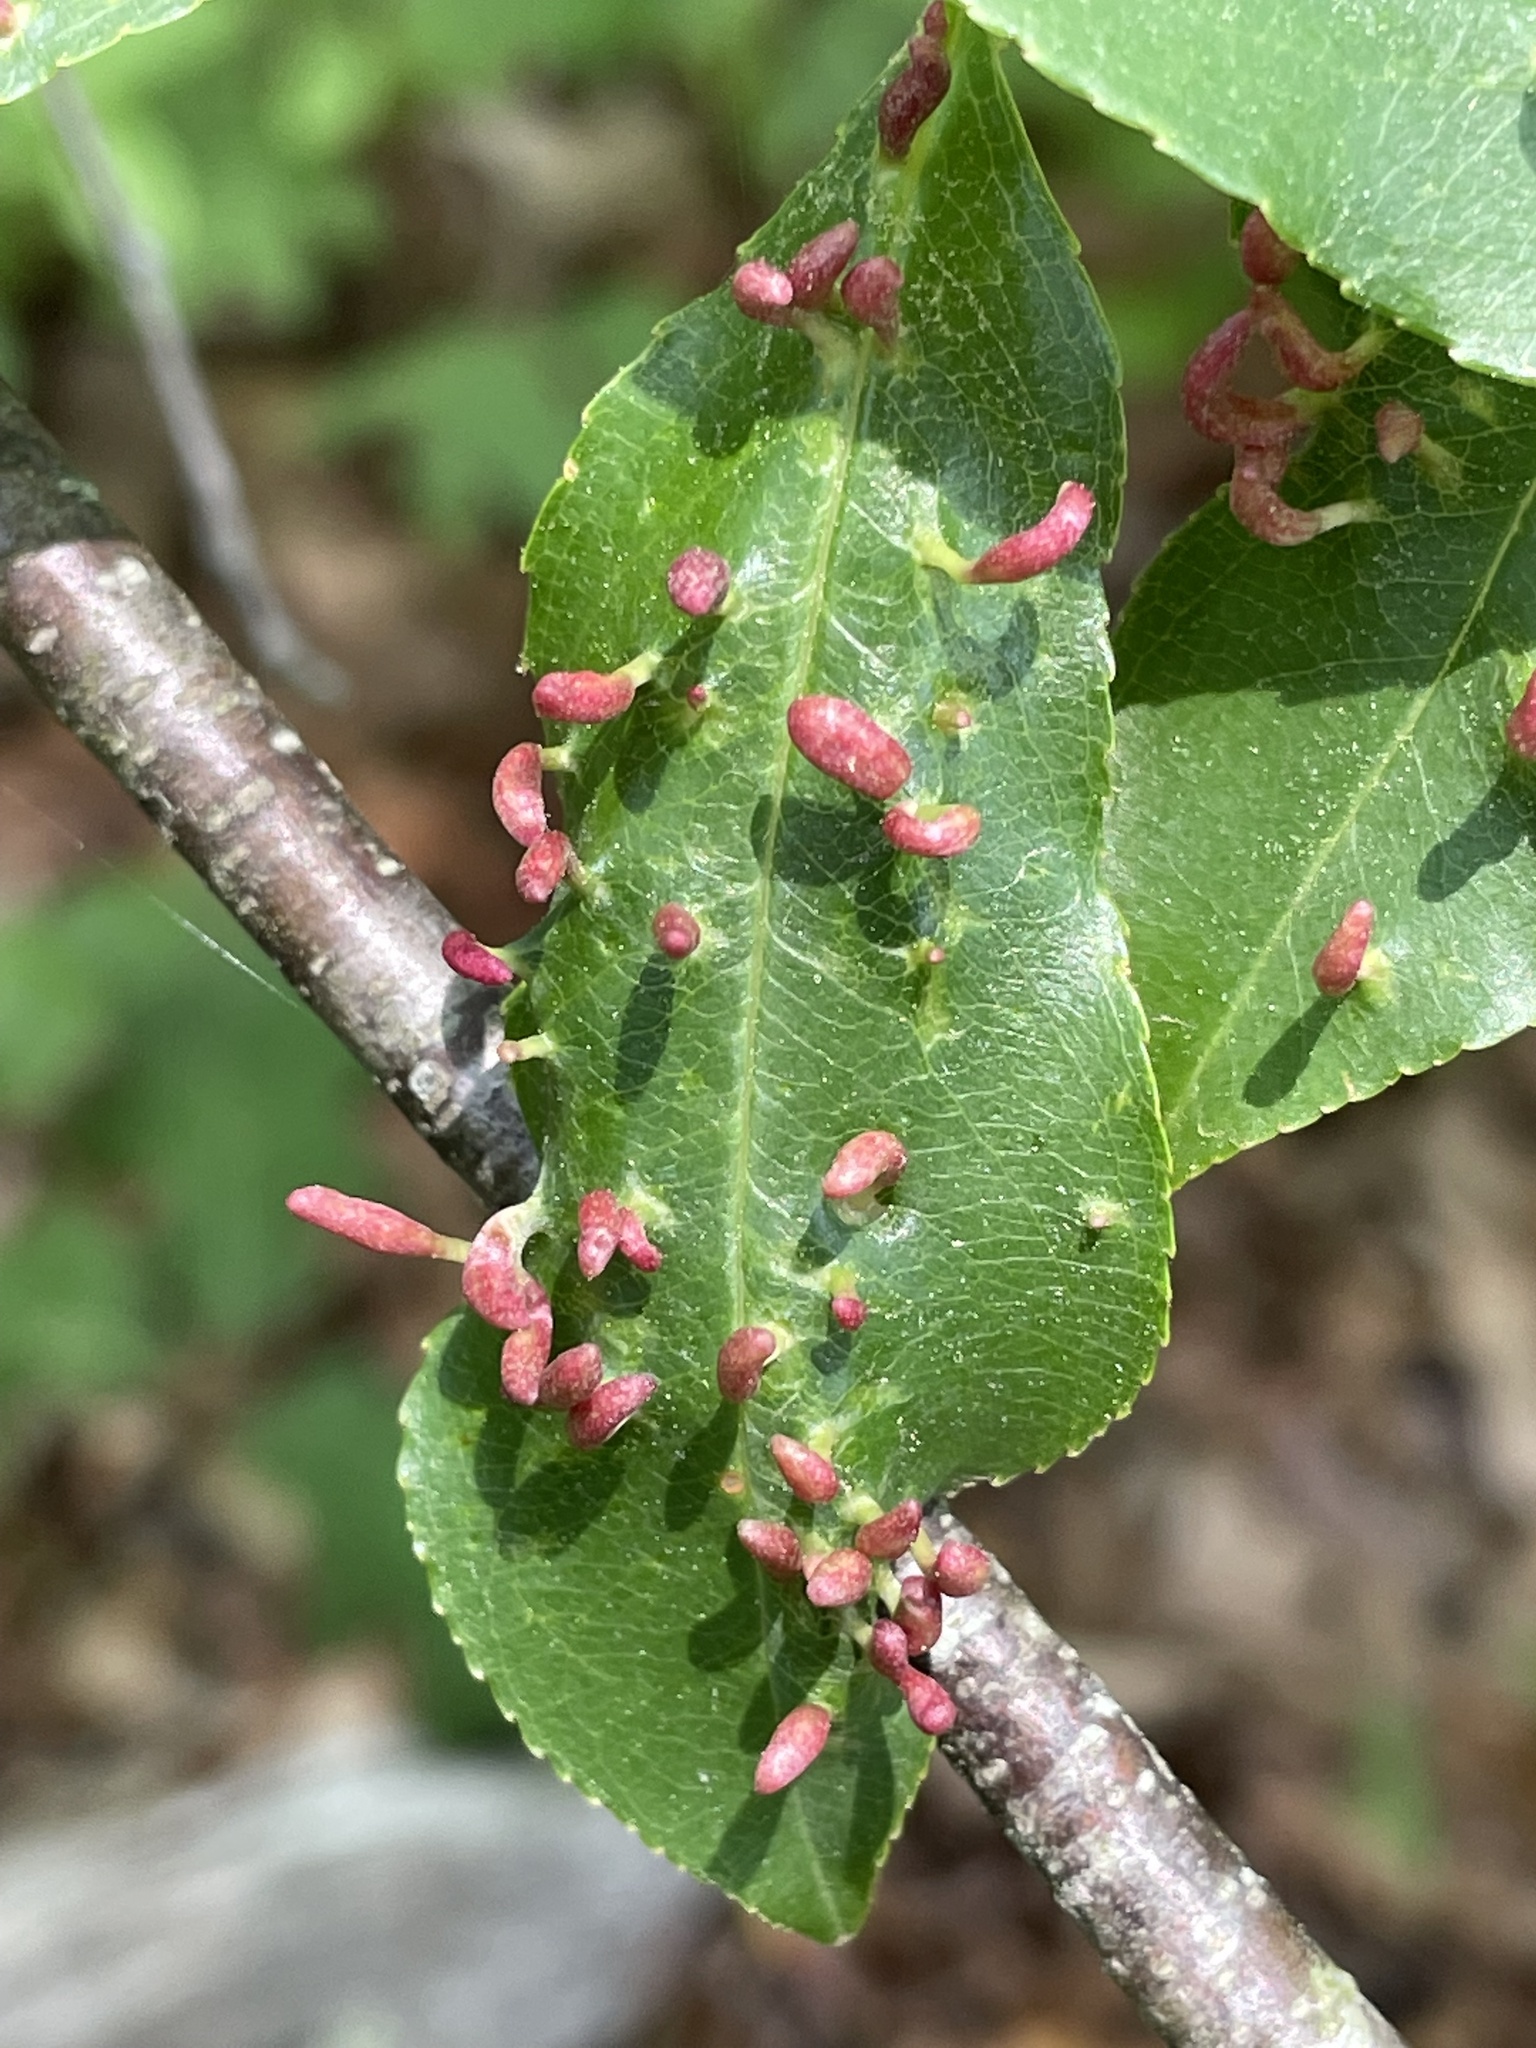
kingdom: Animalia
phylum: Arthropoda
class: Arachnida
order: Trombidiformes
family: Eriophyidae
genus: Eriophyes
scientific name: Eriophyes
